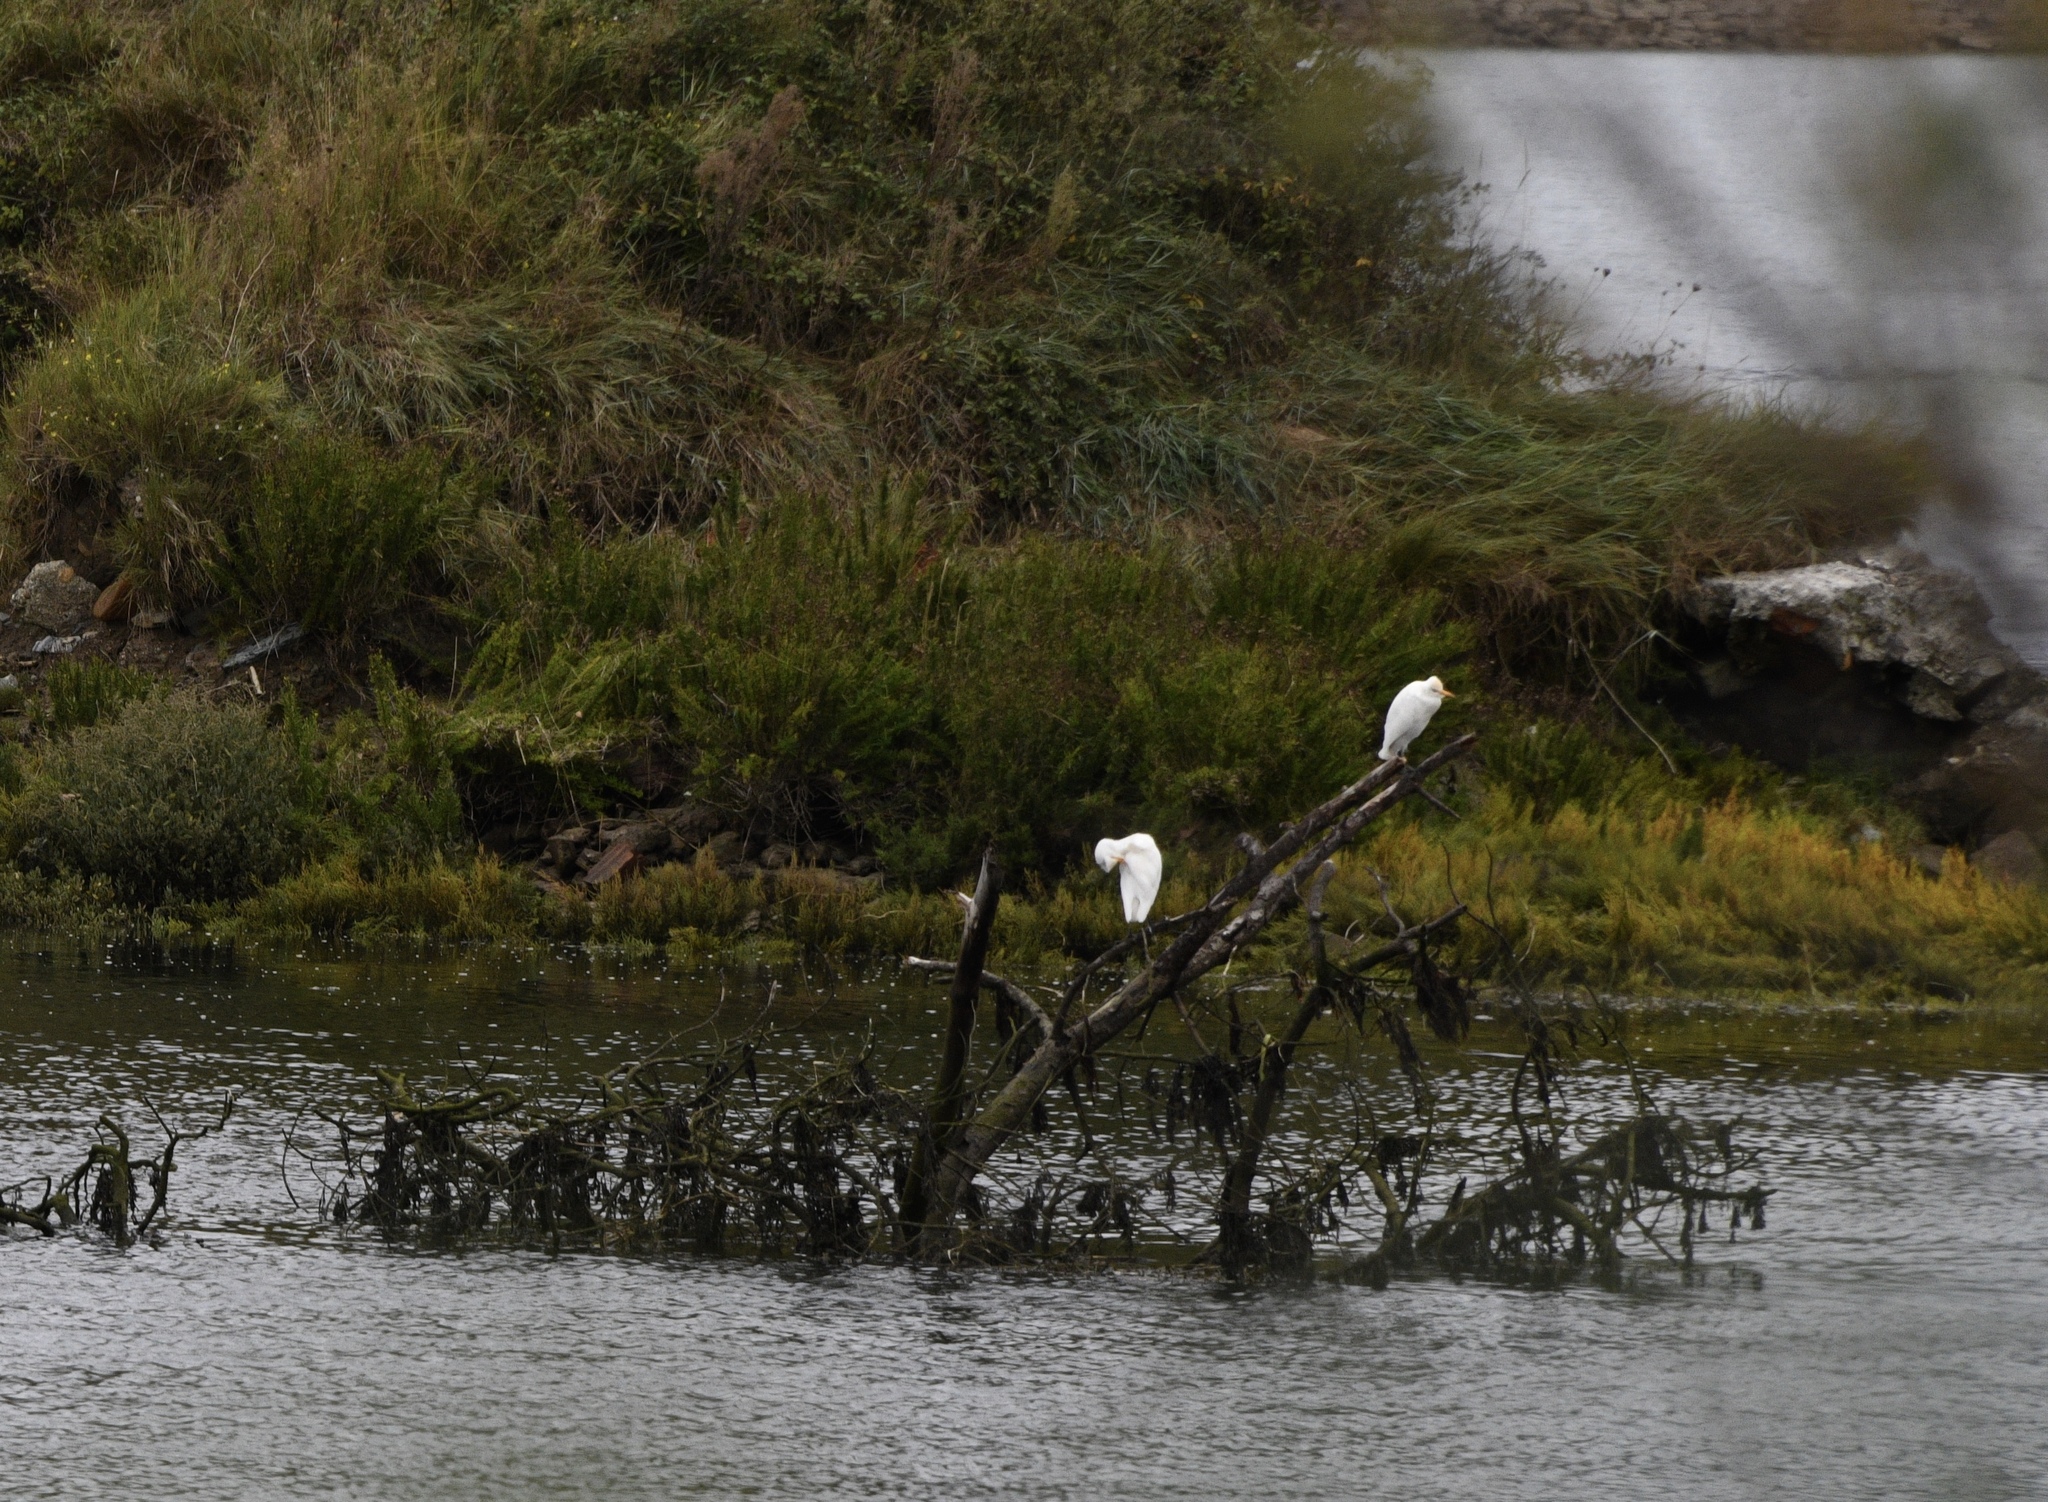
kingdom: Animalia
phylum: Chordata
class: Aves
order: Pelecaniformes
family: Ardeidae
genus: Bubulcus
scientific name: Bubulcus ibis
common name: Cattle egret
